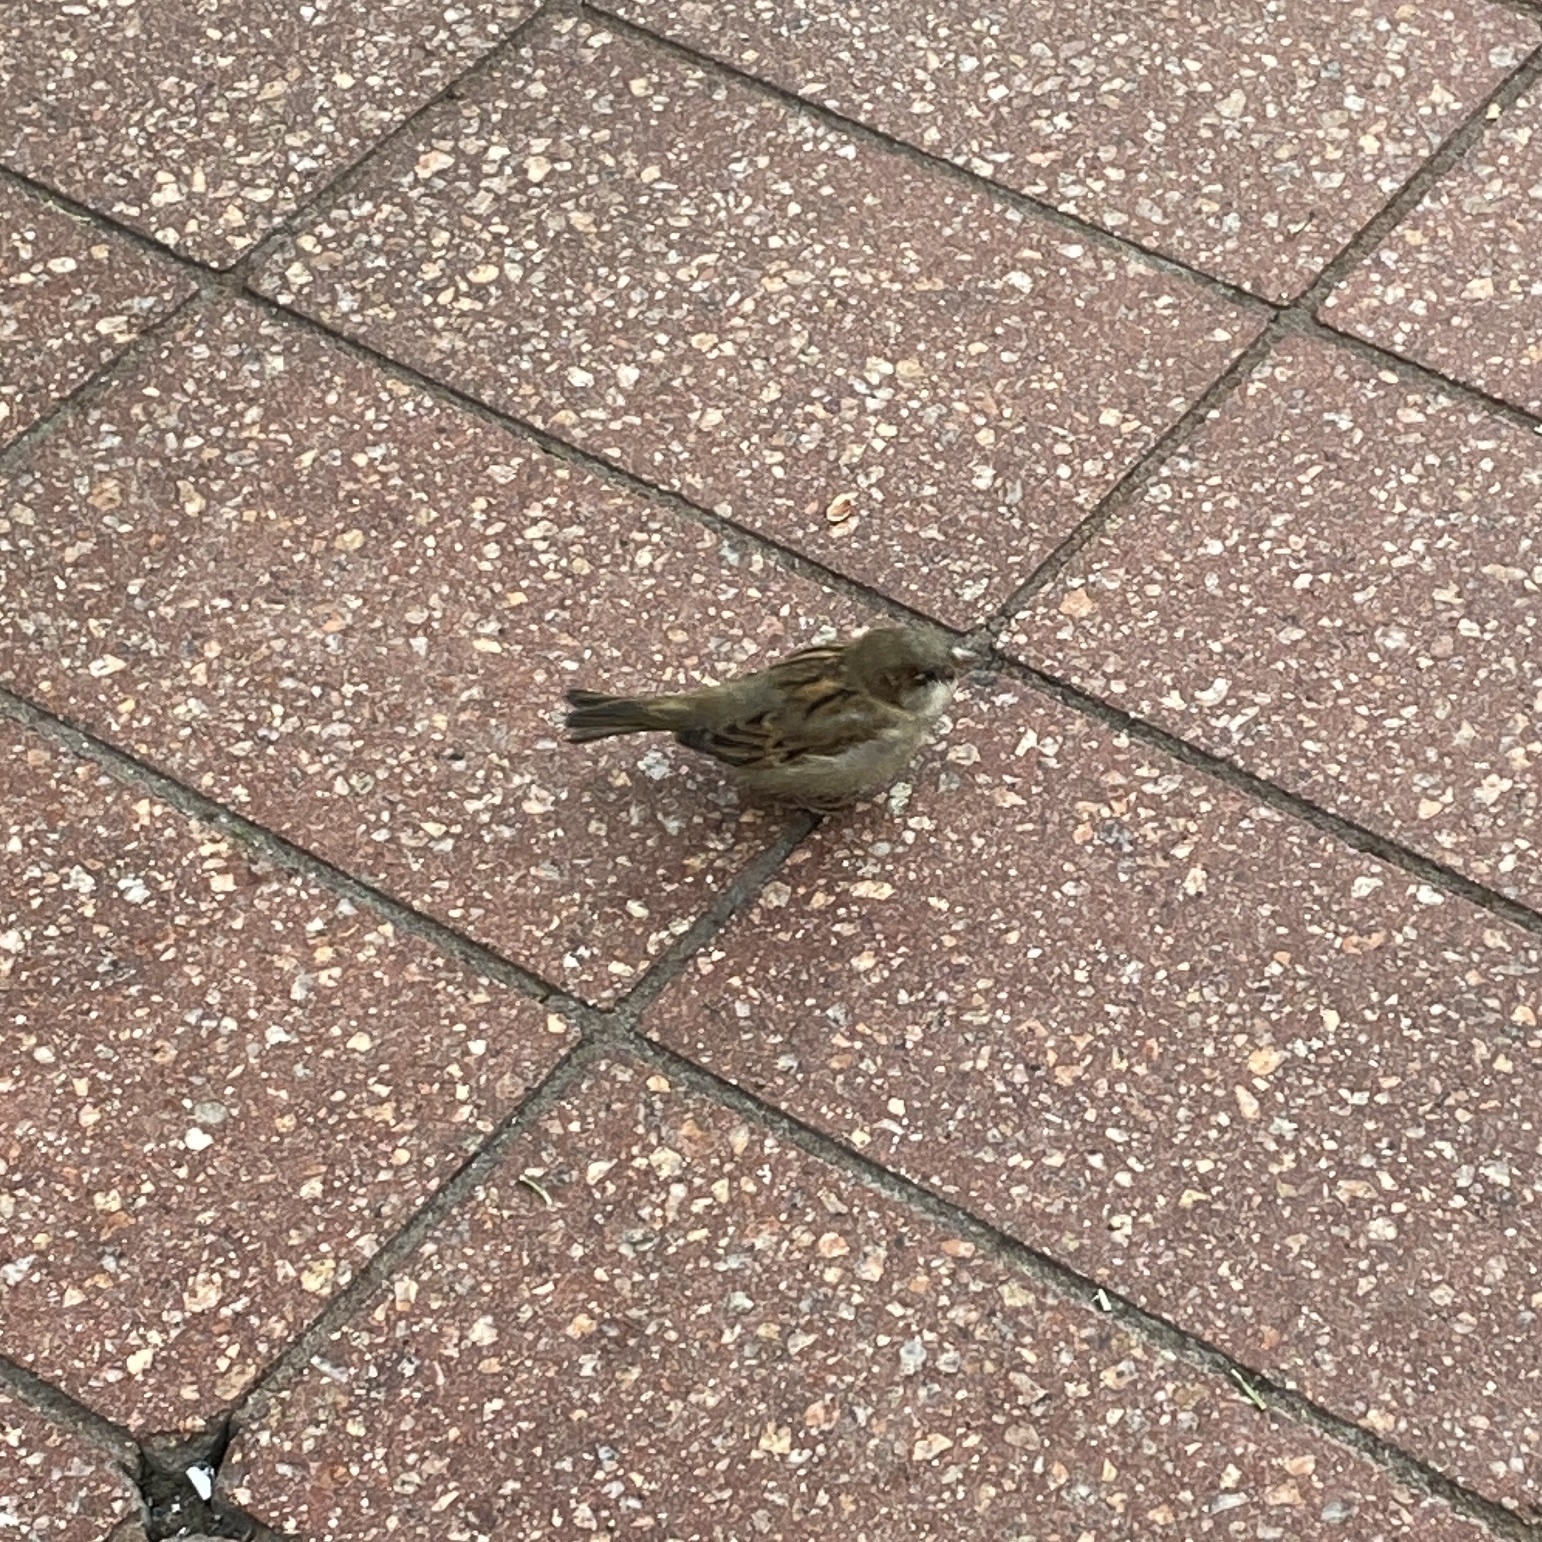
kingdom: Animalia
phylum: Chordata
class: Aves
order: Passeriformes
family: Passeridae
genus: Passer
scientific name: Passer domesticus
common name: House sparrow
